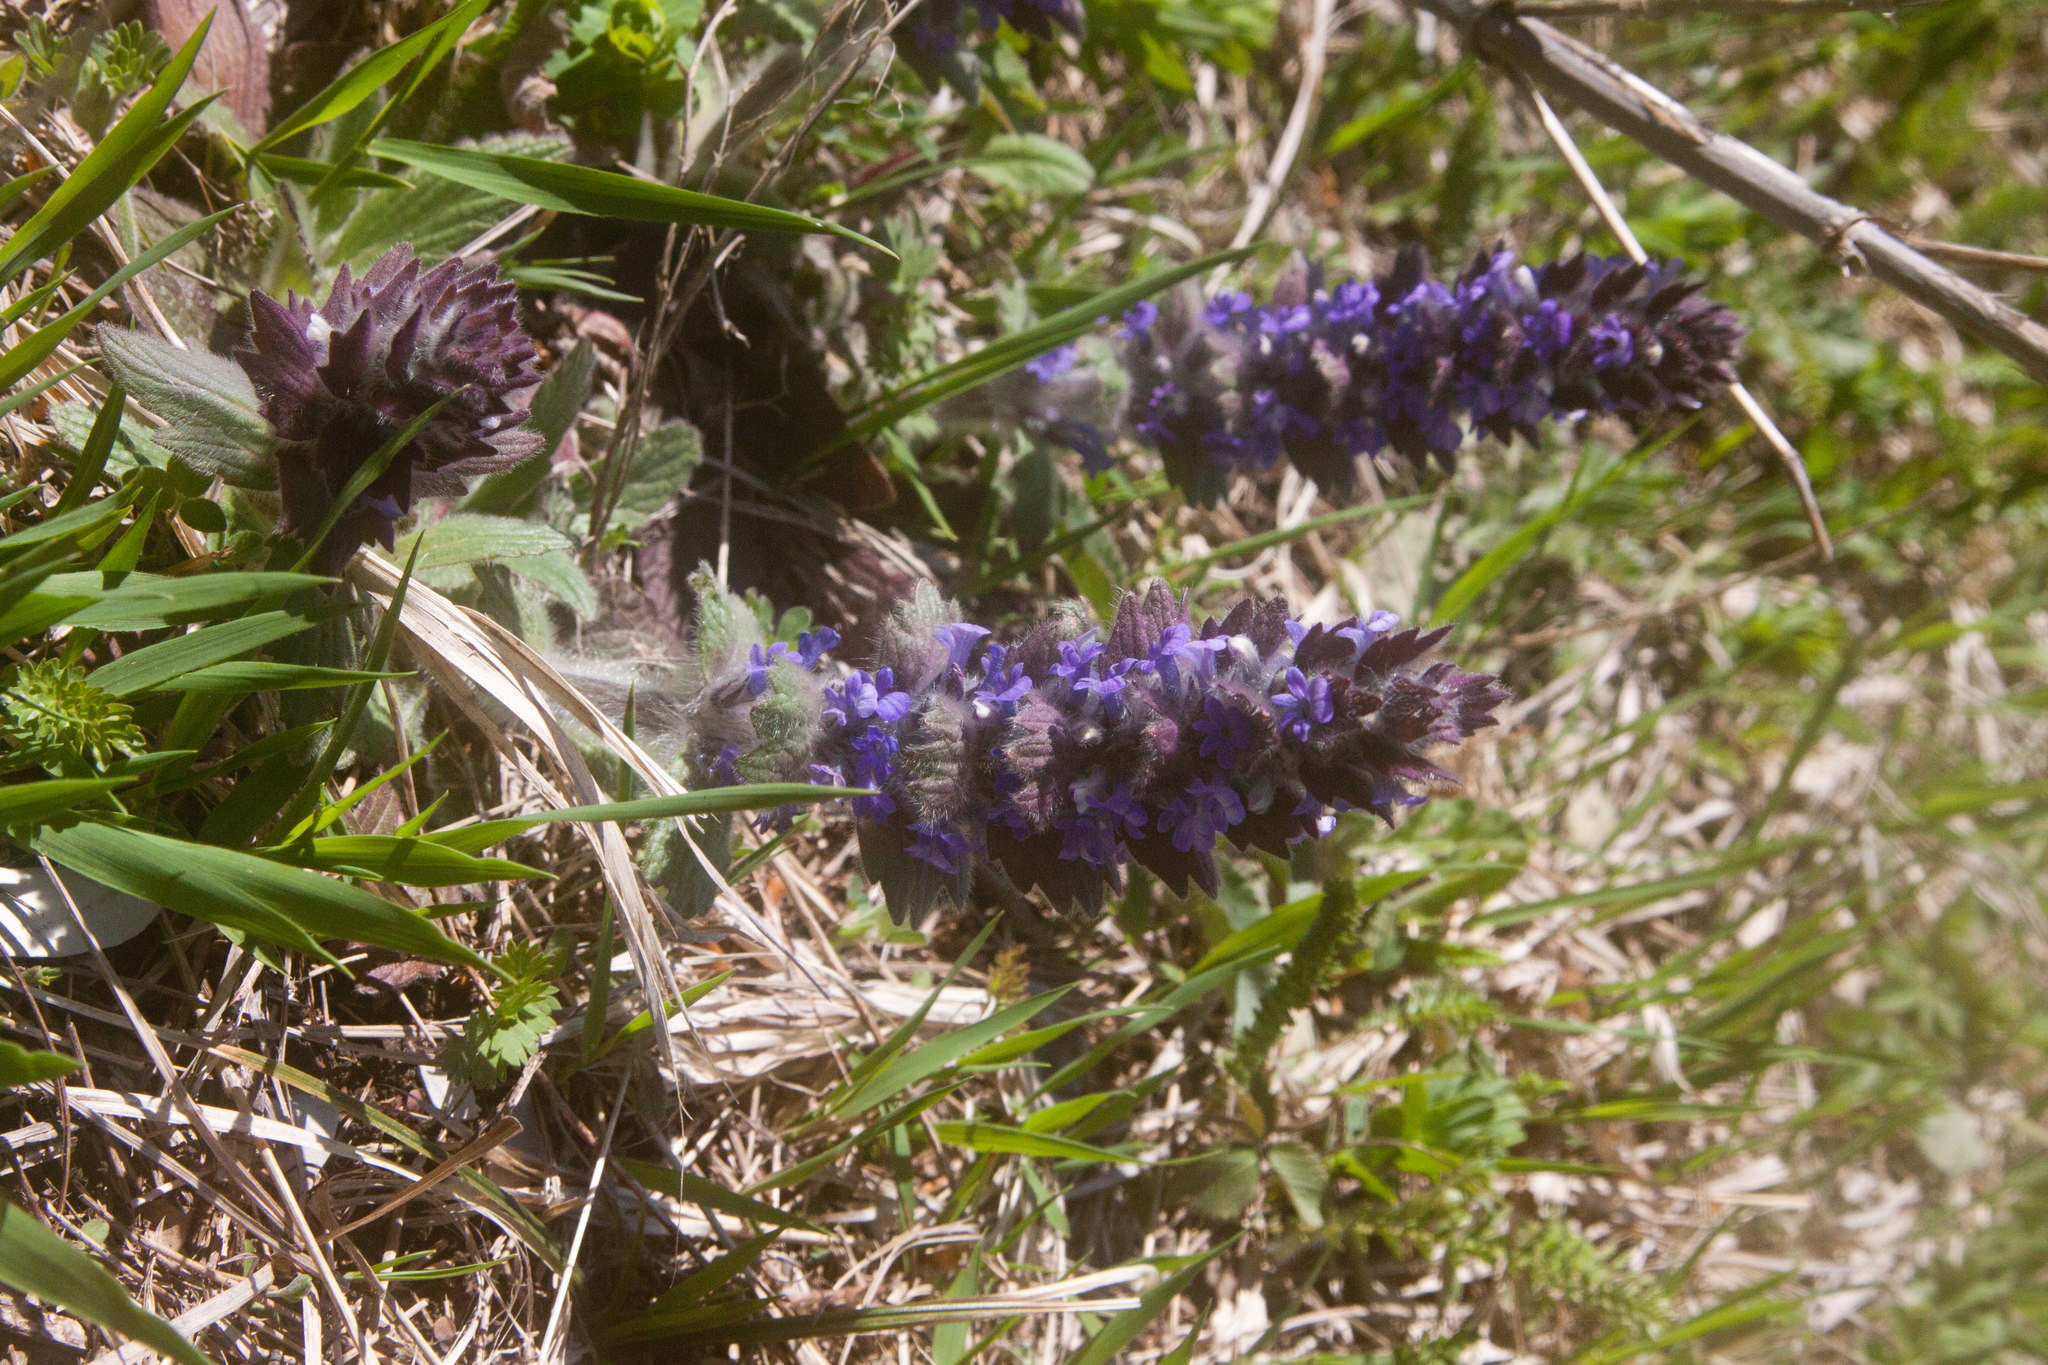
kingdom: Plantae
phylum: Tracheophyta
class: Magnoliopsida
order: Lamiales
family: Lamiaceae
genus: Ajuga
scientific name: Ajuga orientalis
